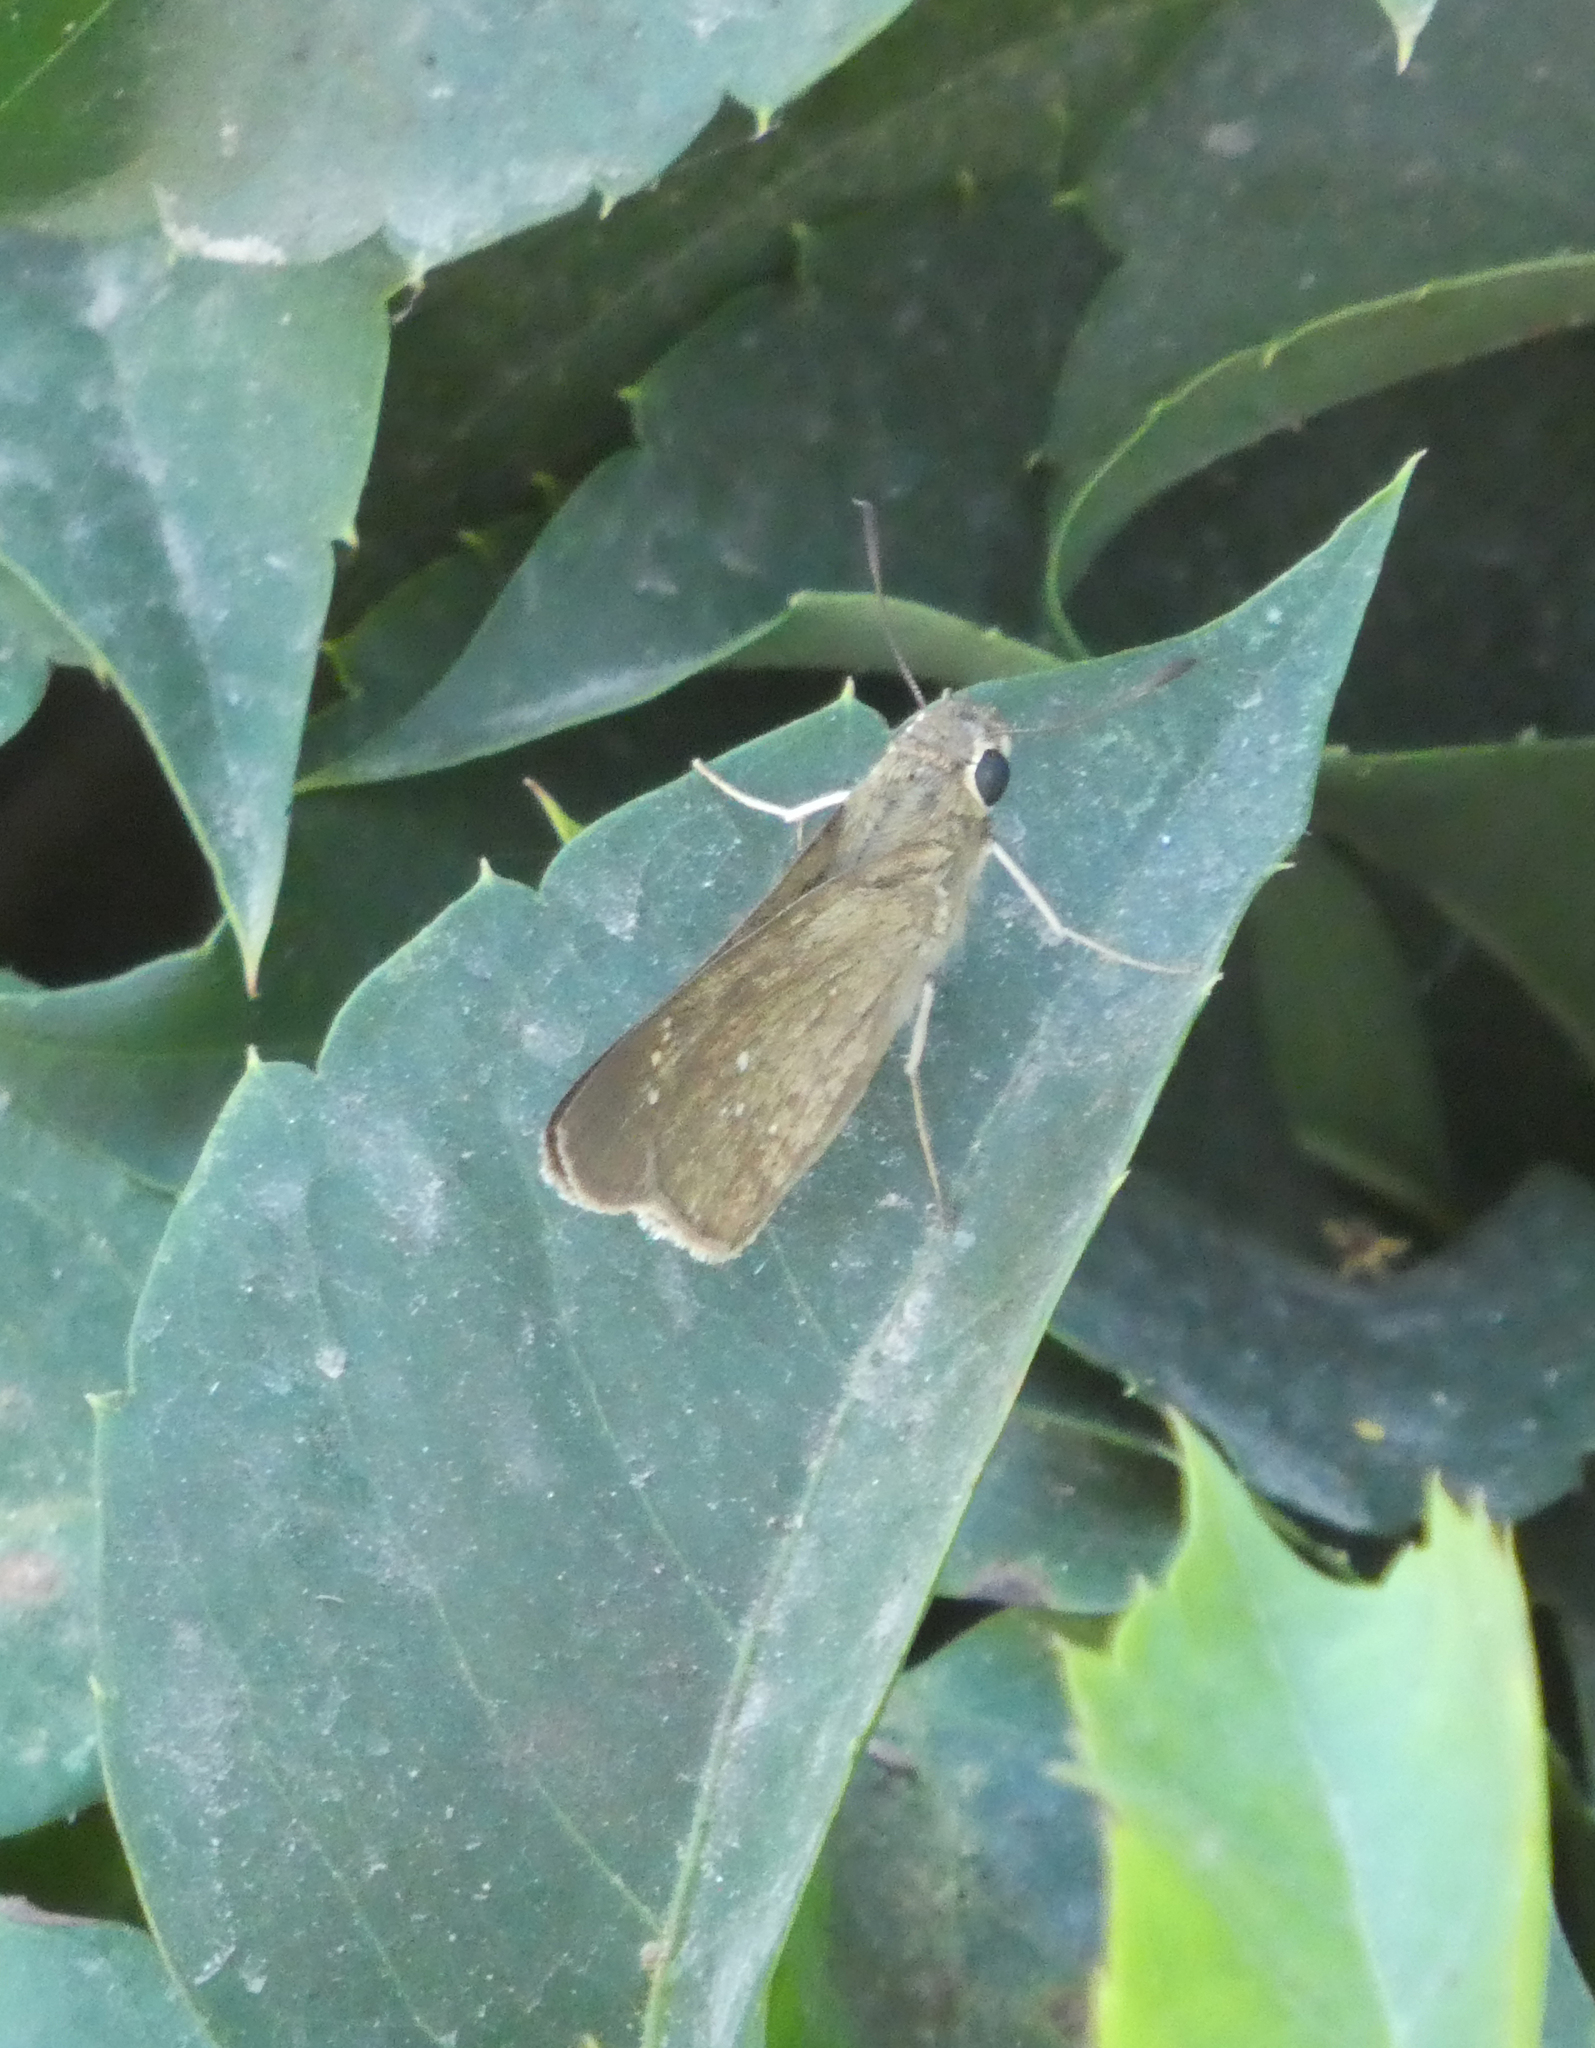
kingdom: Animalia
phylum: Arthropoda
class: Insecta
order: Lepidoptera
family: Hesperiidae
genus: Pelopidas
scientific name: Pelopidas thrax
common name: Millet skipper
